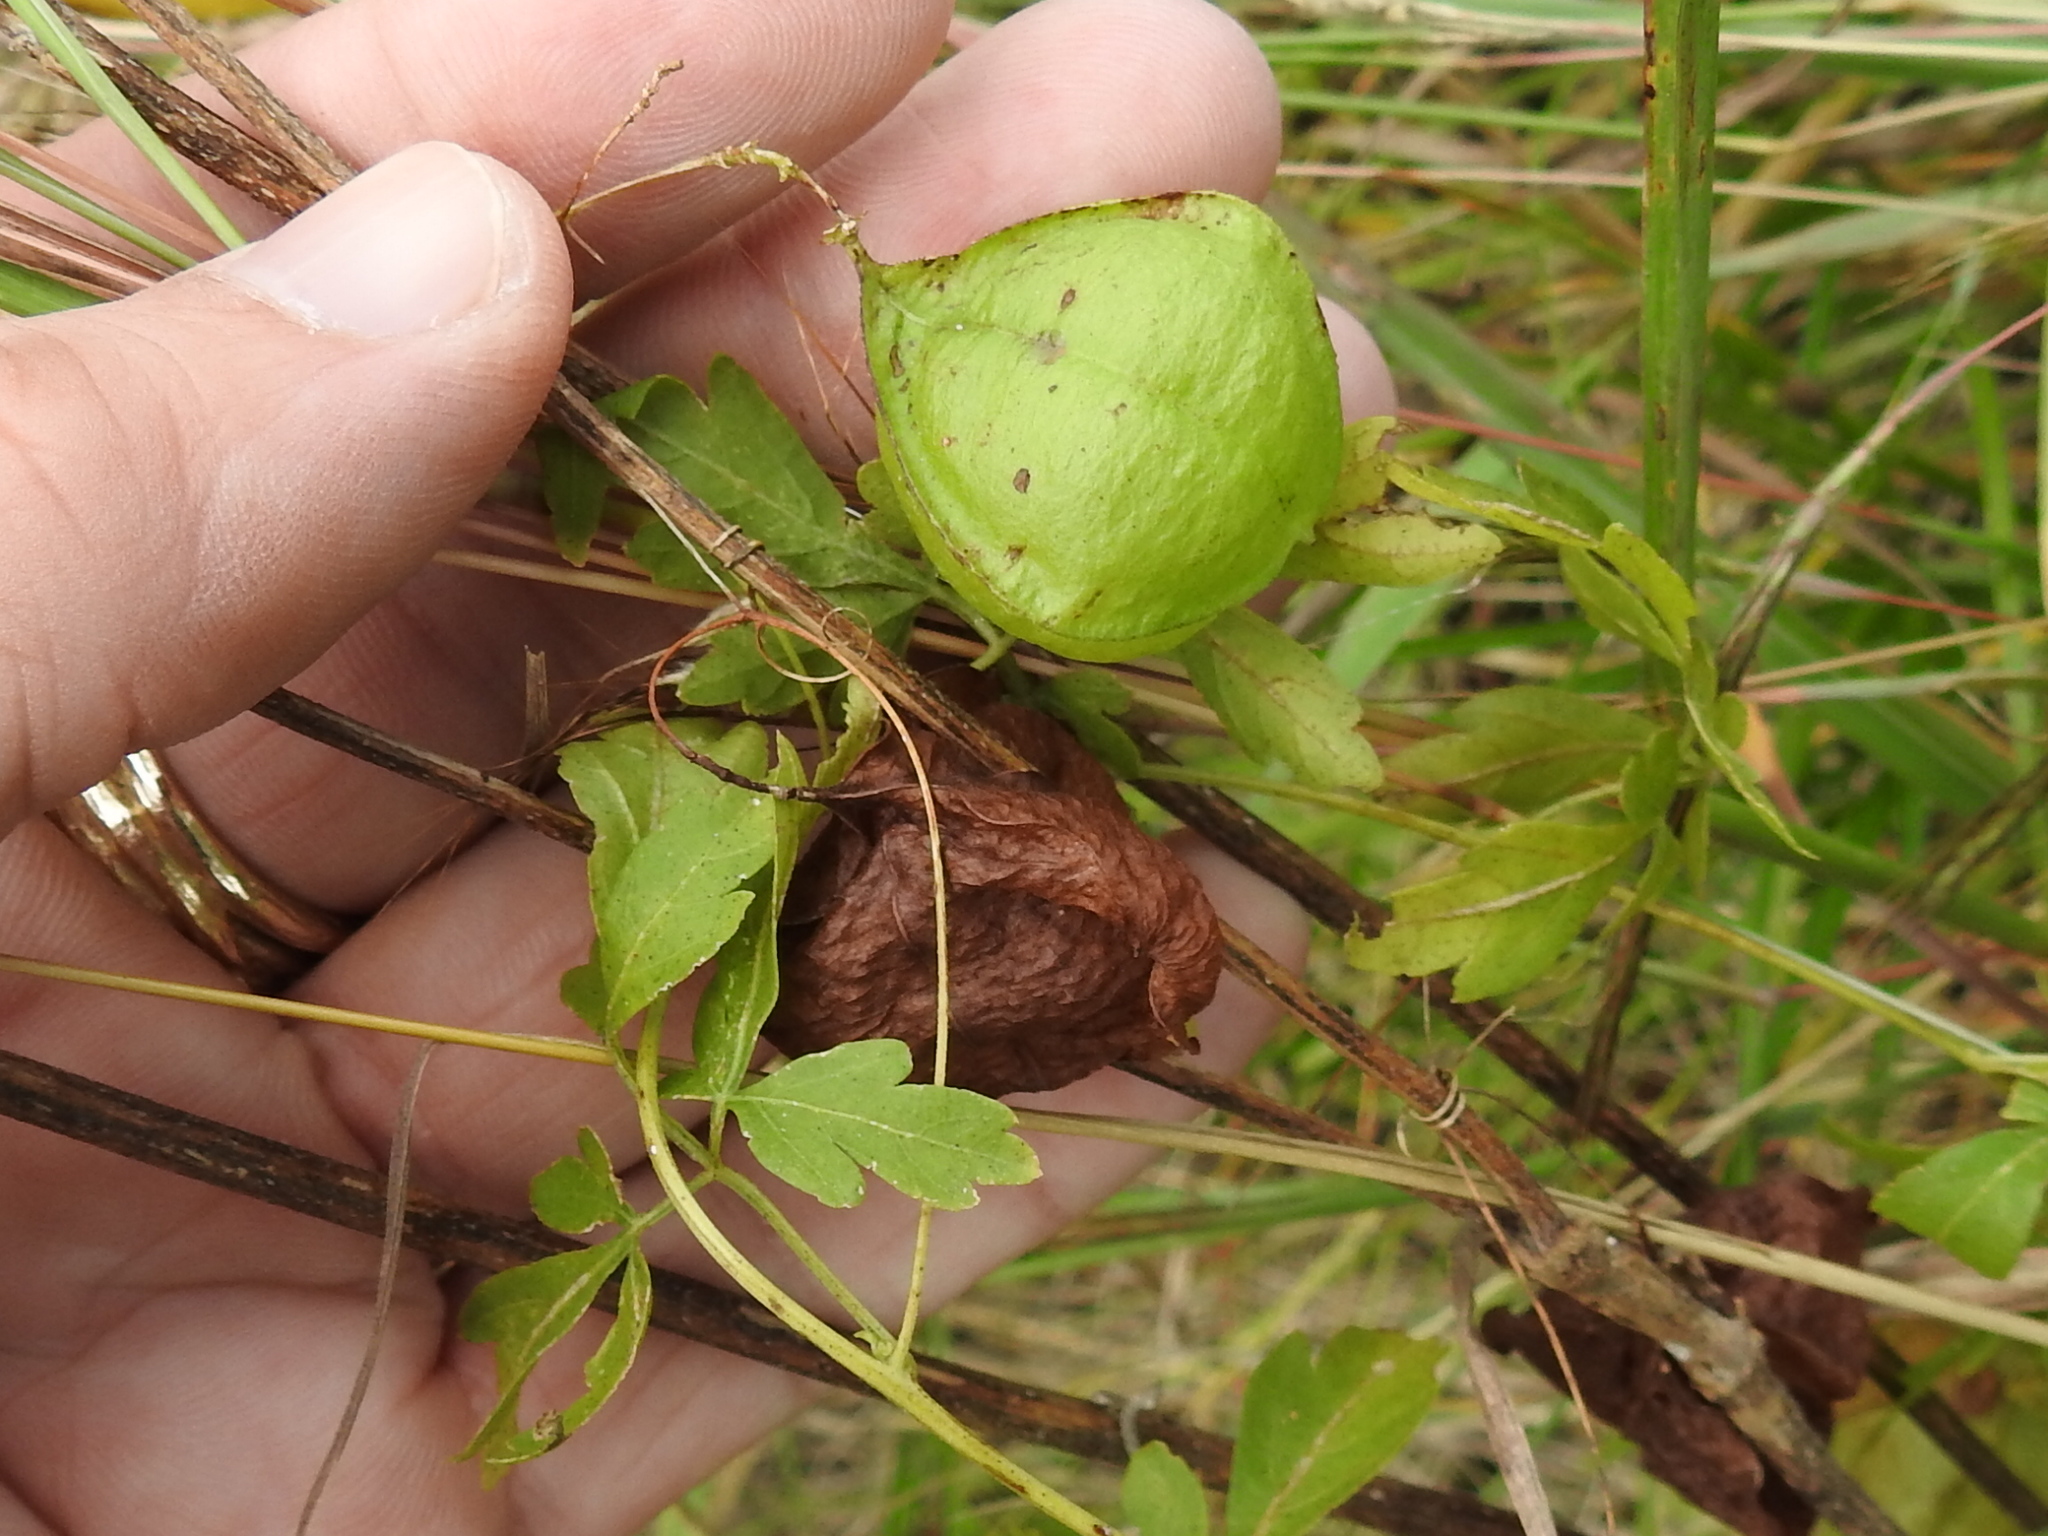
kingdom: Plantae
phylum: Tracheophyta
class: Magnoliopsida
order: Sapindales
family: Sapindaceae
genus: Cardiospermum
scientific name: Cardiospermum halicacabum
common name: Balloon vine
